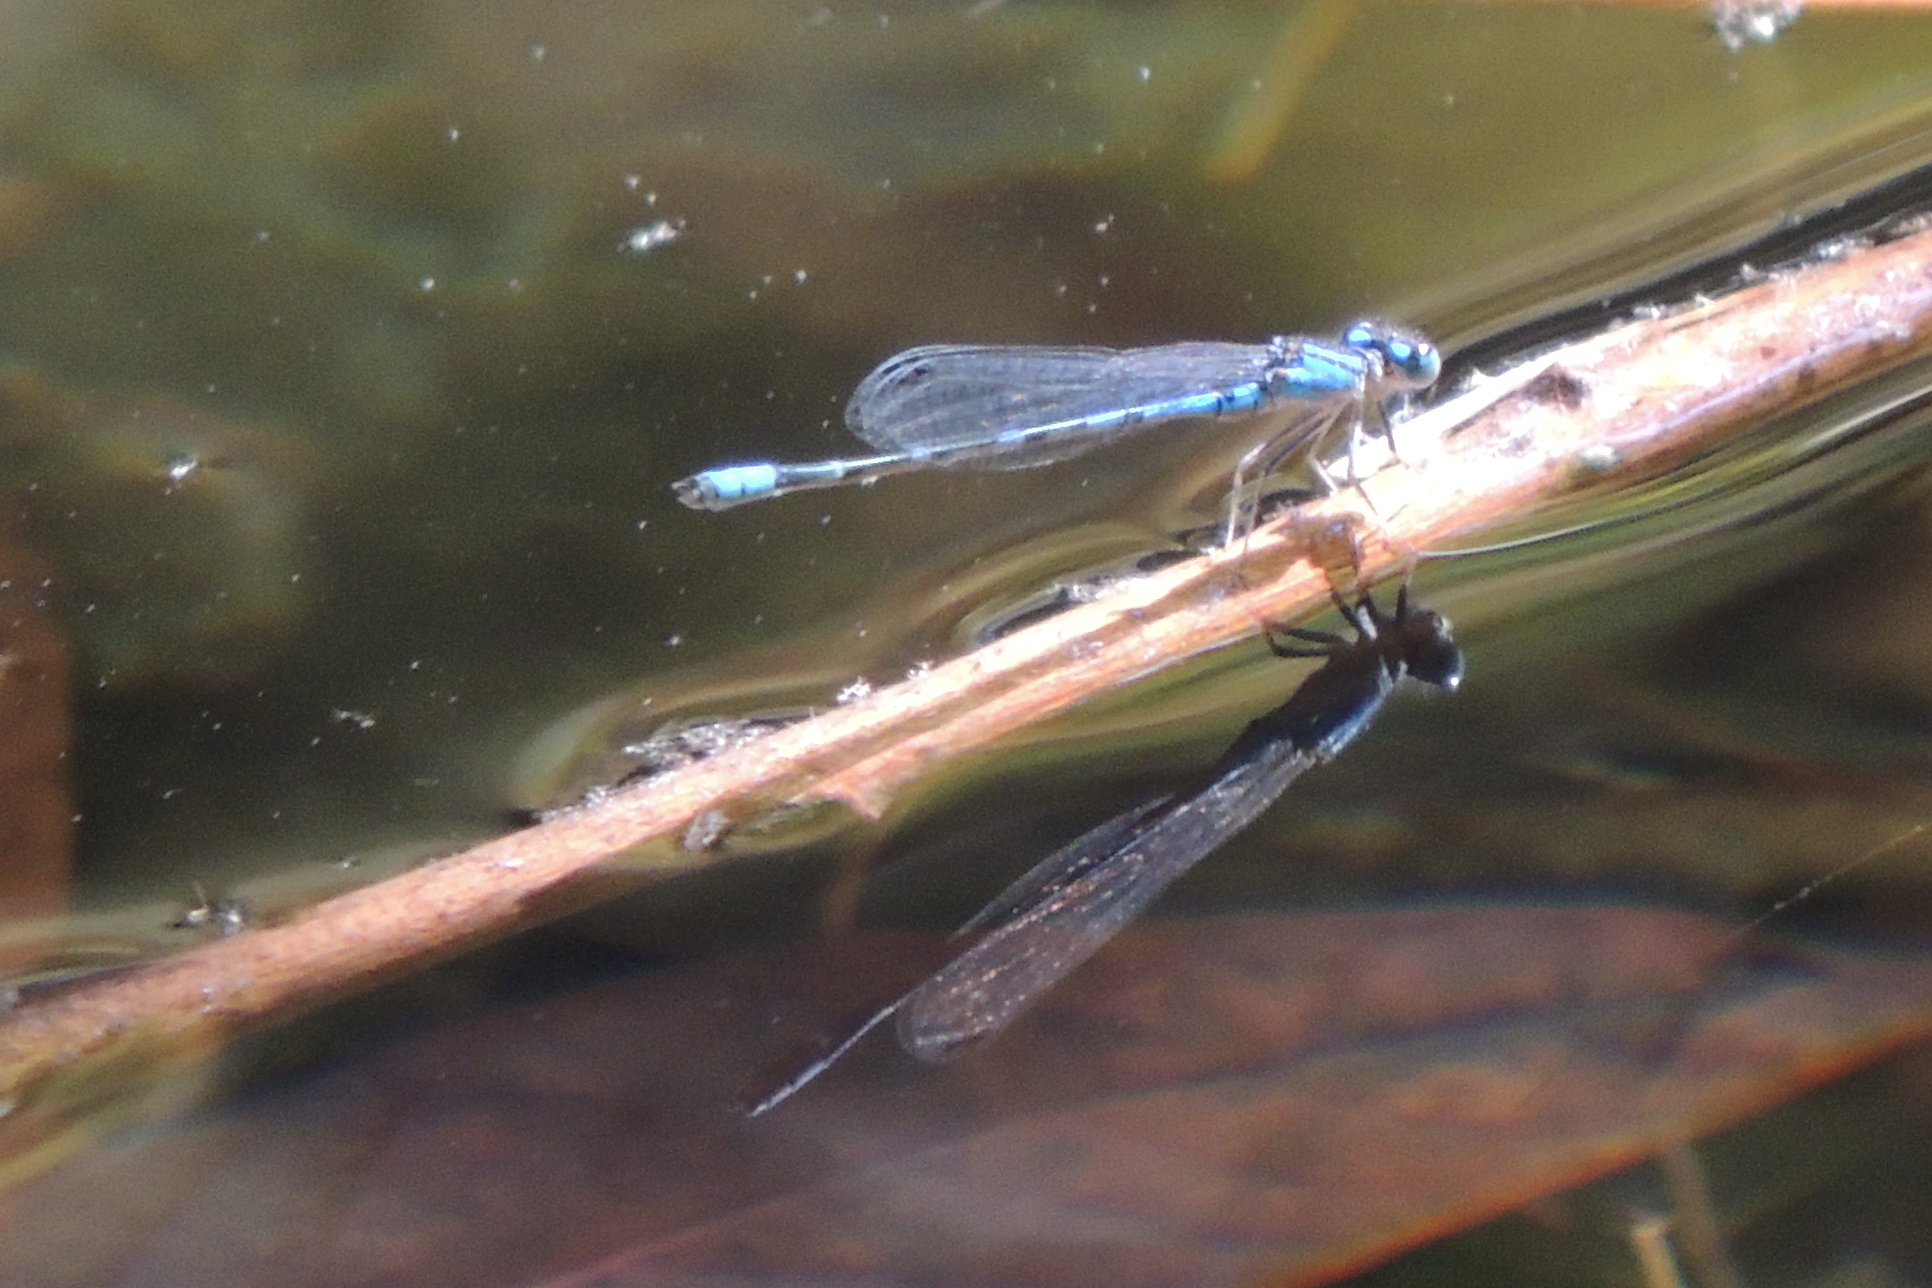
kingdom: Animalia
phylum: Arthropoda
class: Insecta
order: Odonata
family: Coenagrionidae
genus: Enallagma
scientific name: Enallagma praevarum
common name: Arroyo bluet
